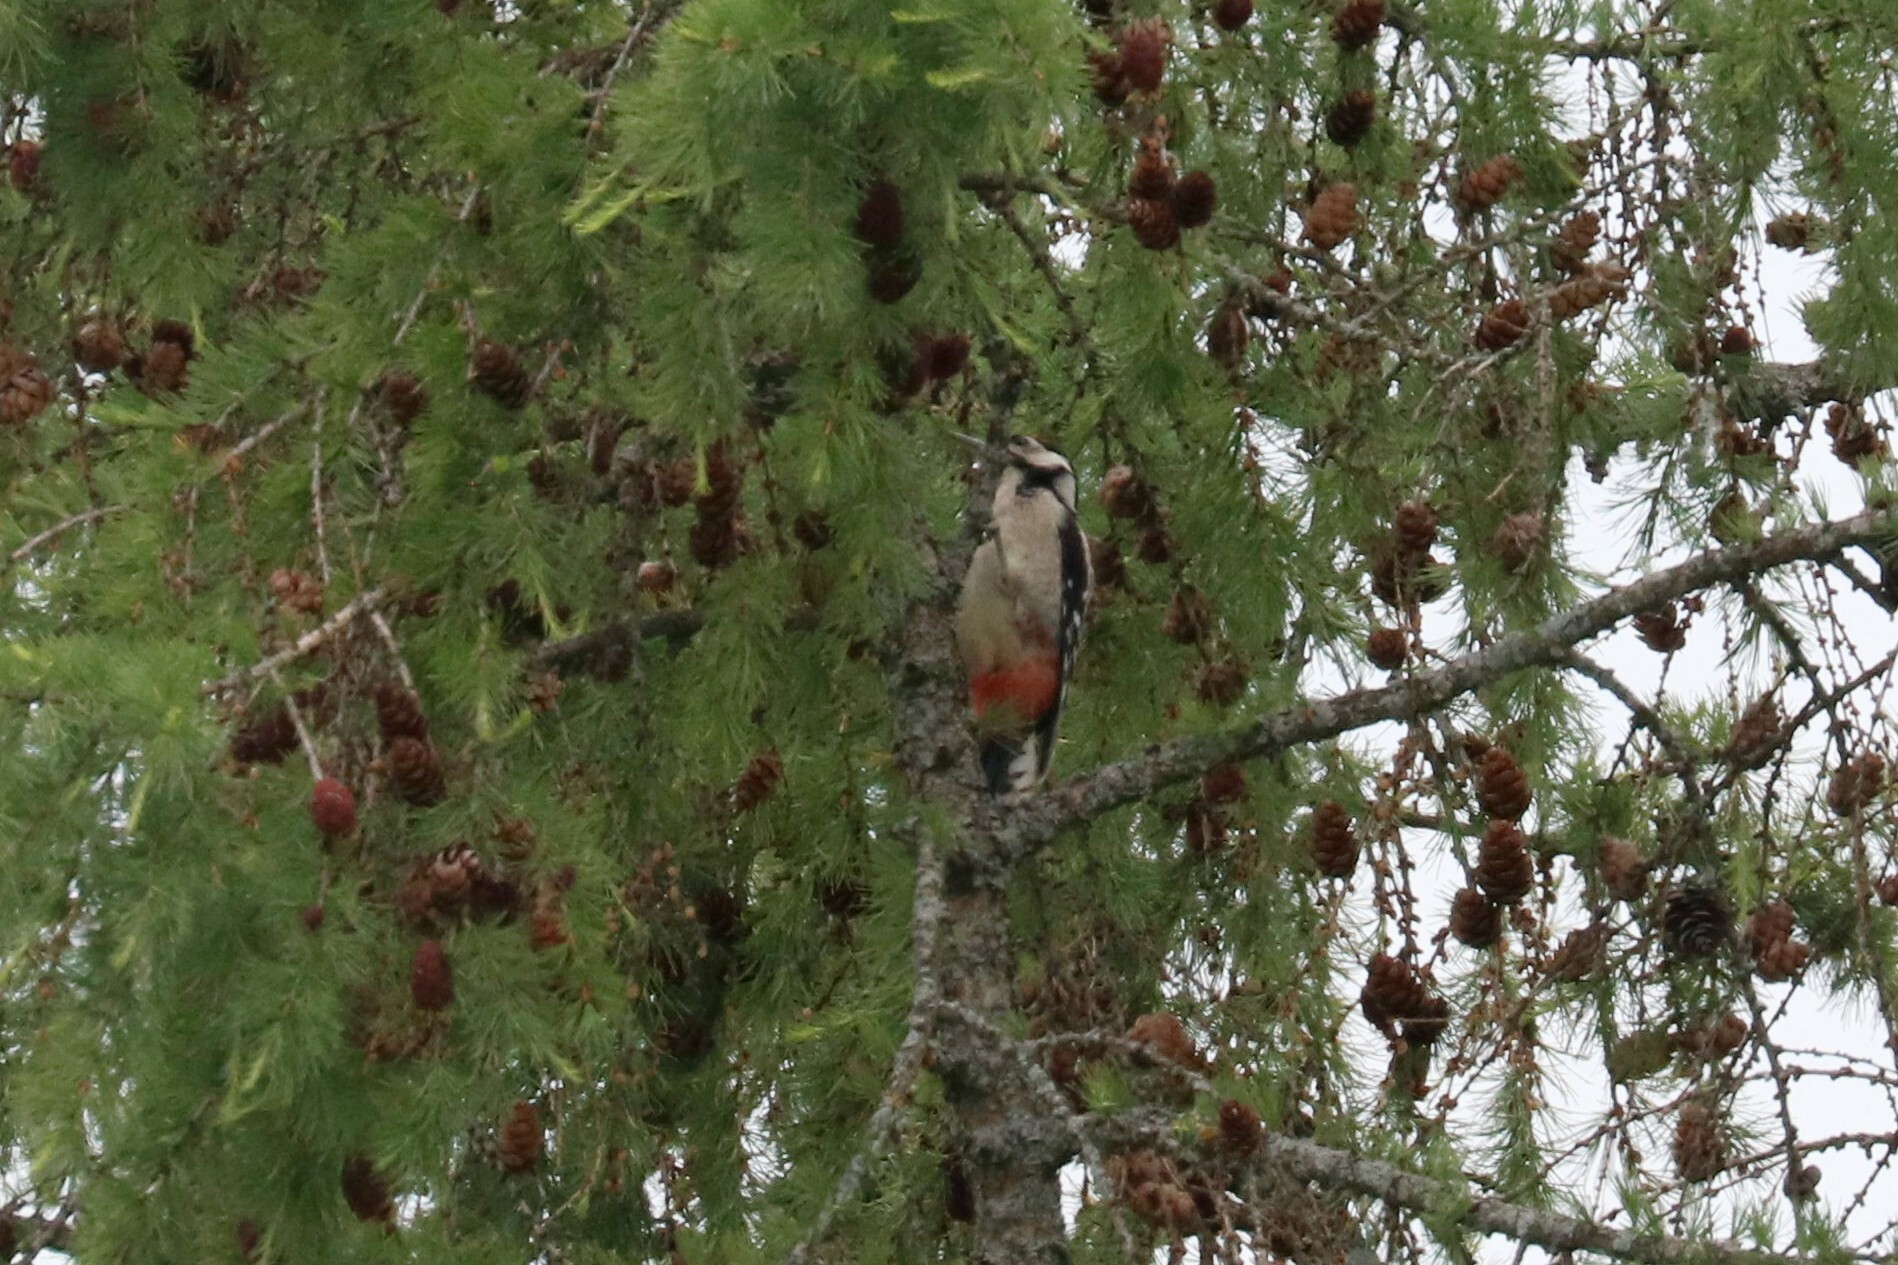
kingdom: Animalia
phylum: Chordata
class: Aves
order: Piciformes
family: Picidae
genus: Dendrocopos
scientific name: Dendrocopos major
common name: Great spotted woodpecker
